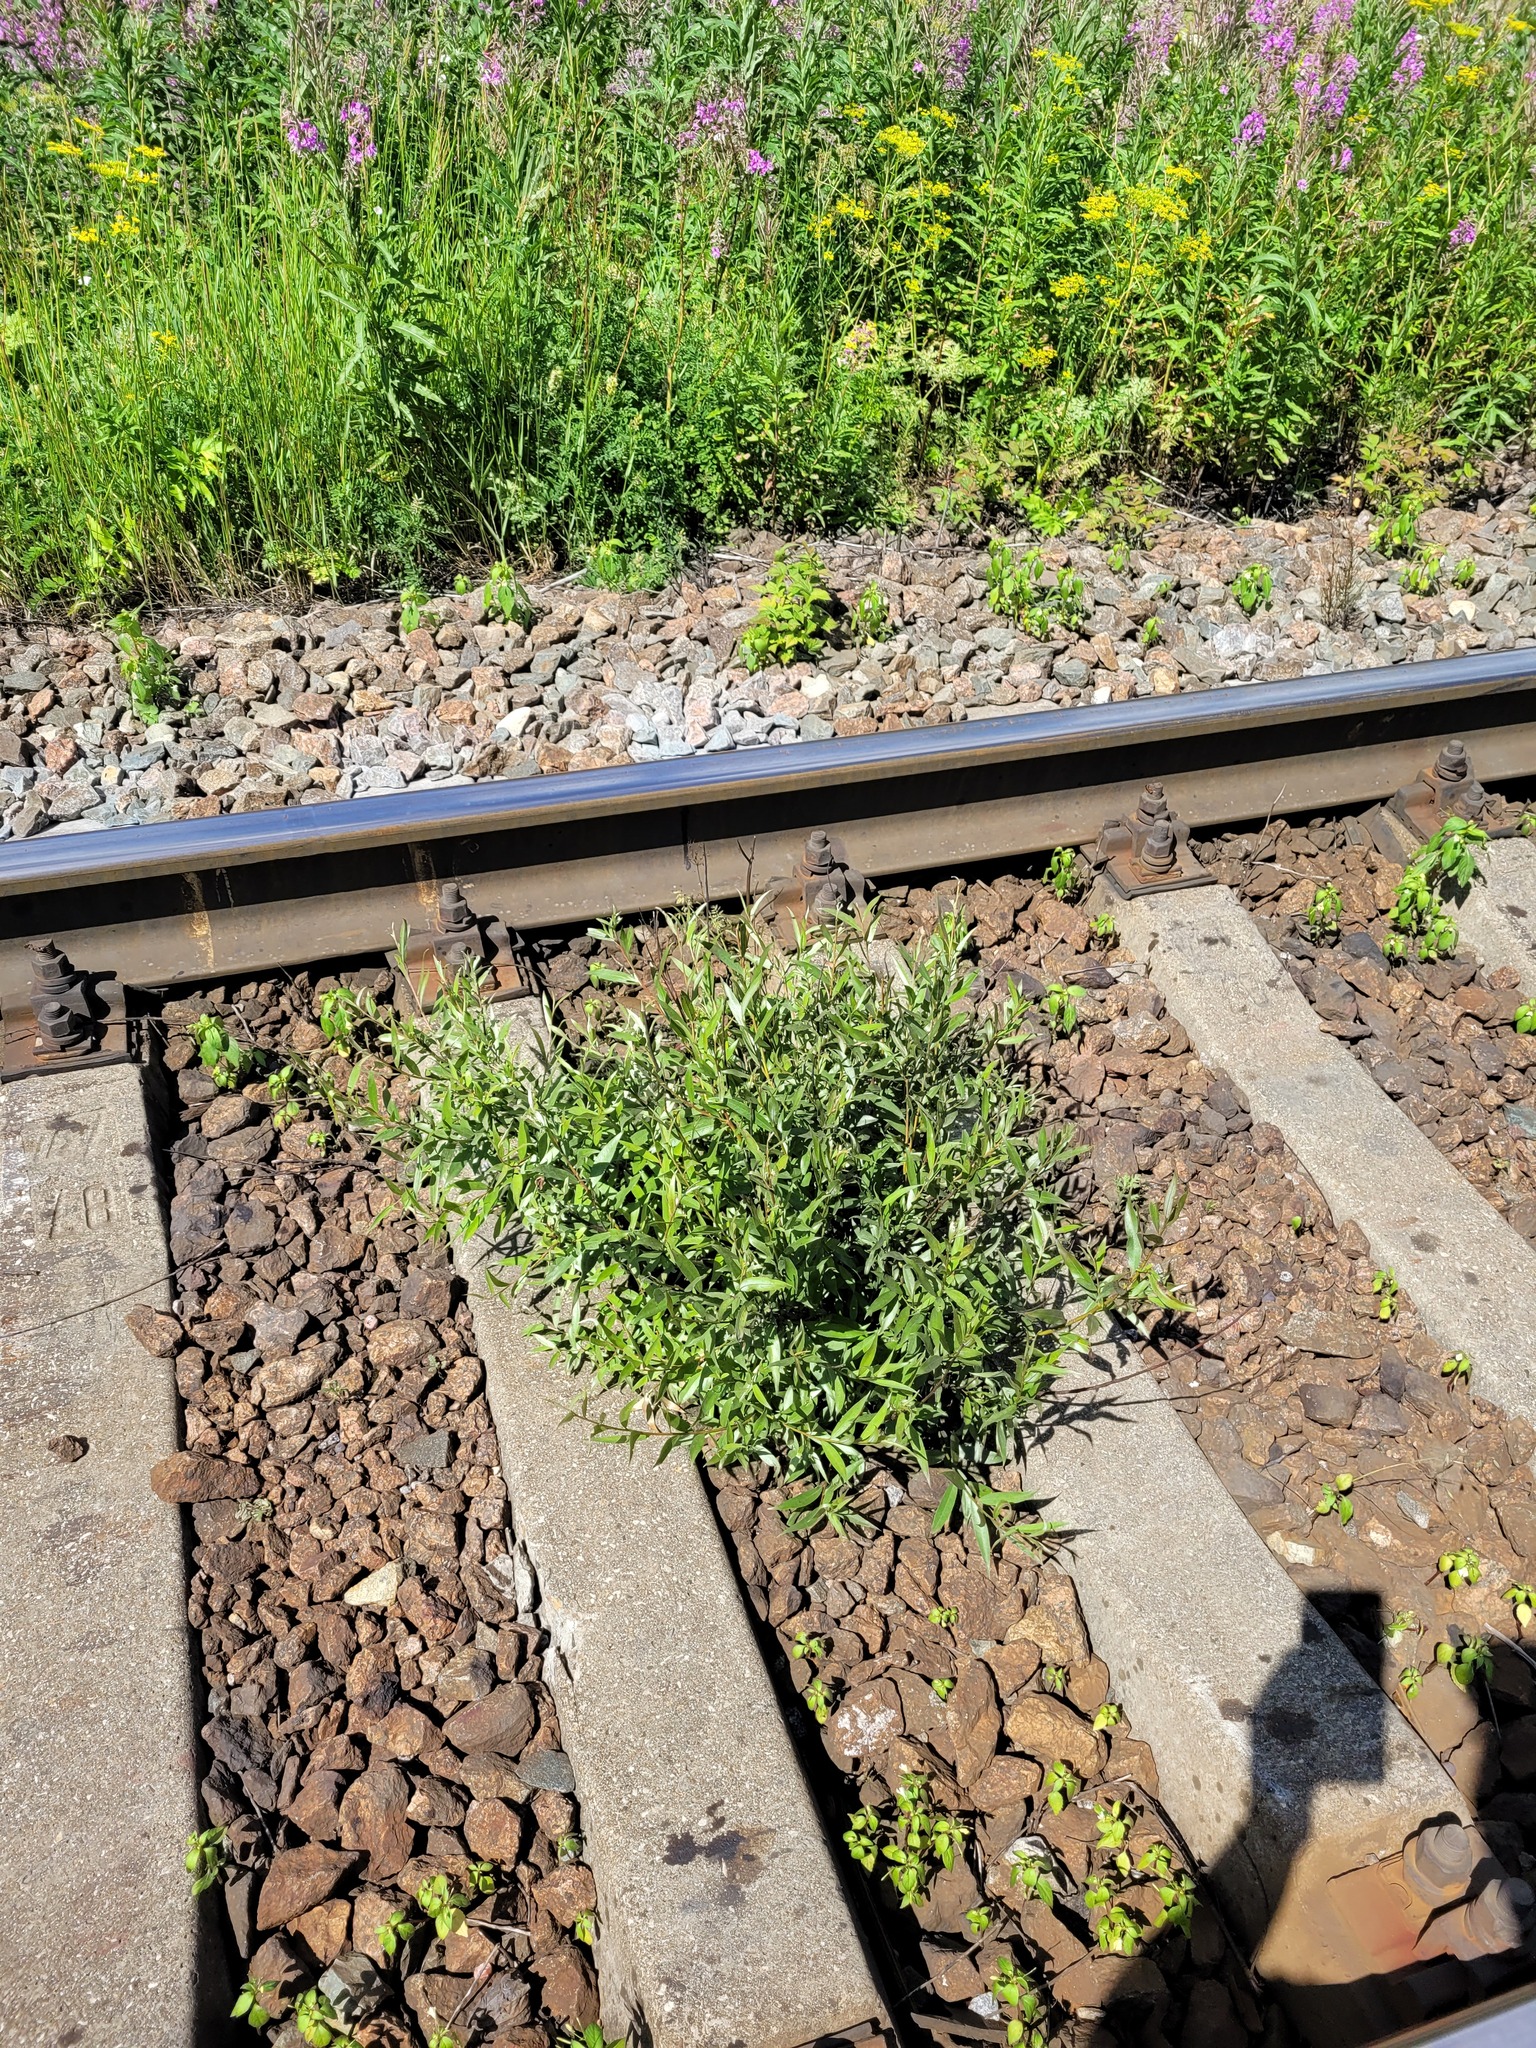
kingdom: Plantae
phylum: Tracheophyta
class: Magnoliopsida
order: Malpighiales
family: Salicaceae
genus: Salix
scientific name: Salix alba
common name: White willow
